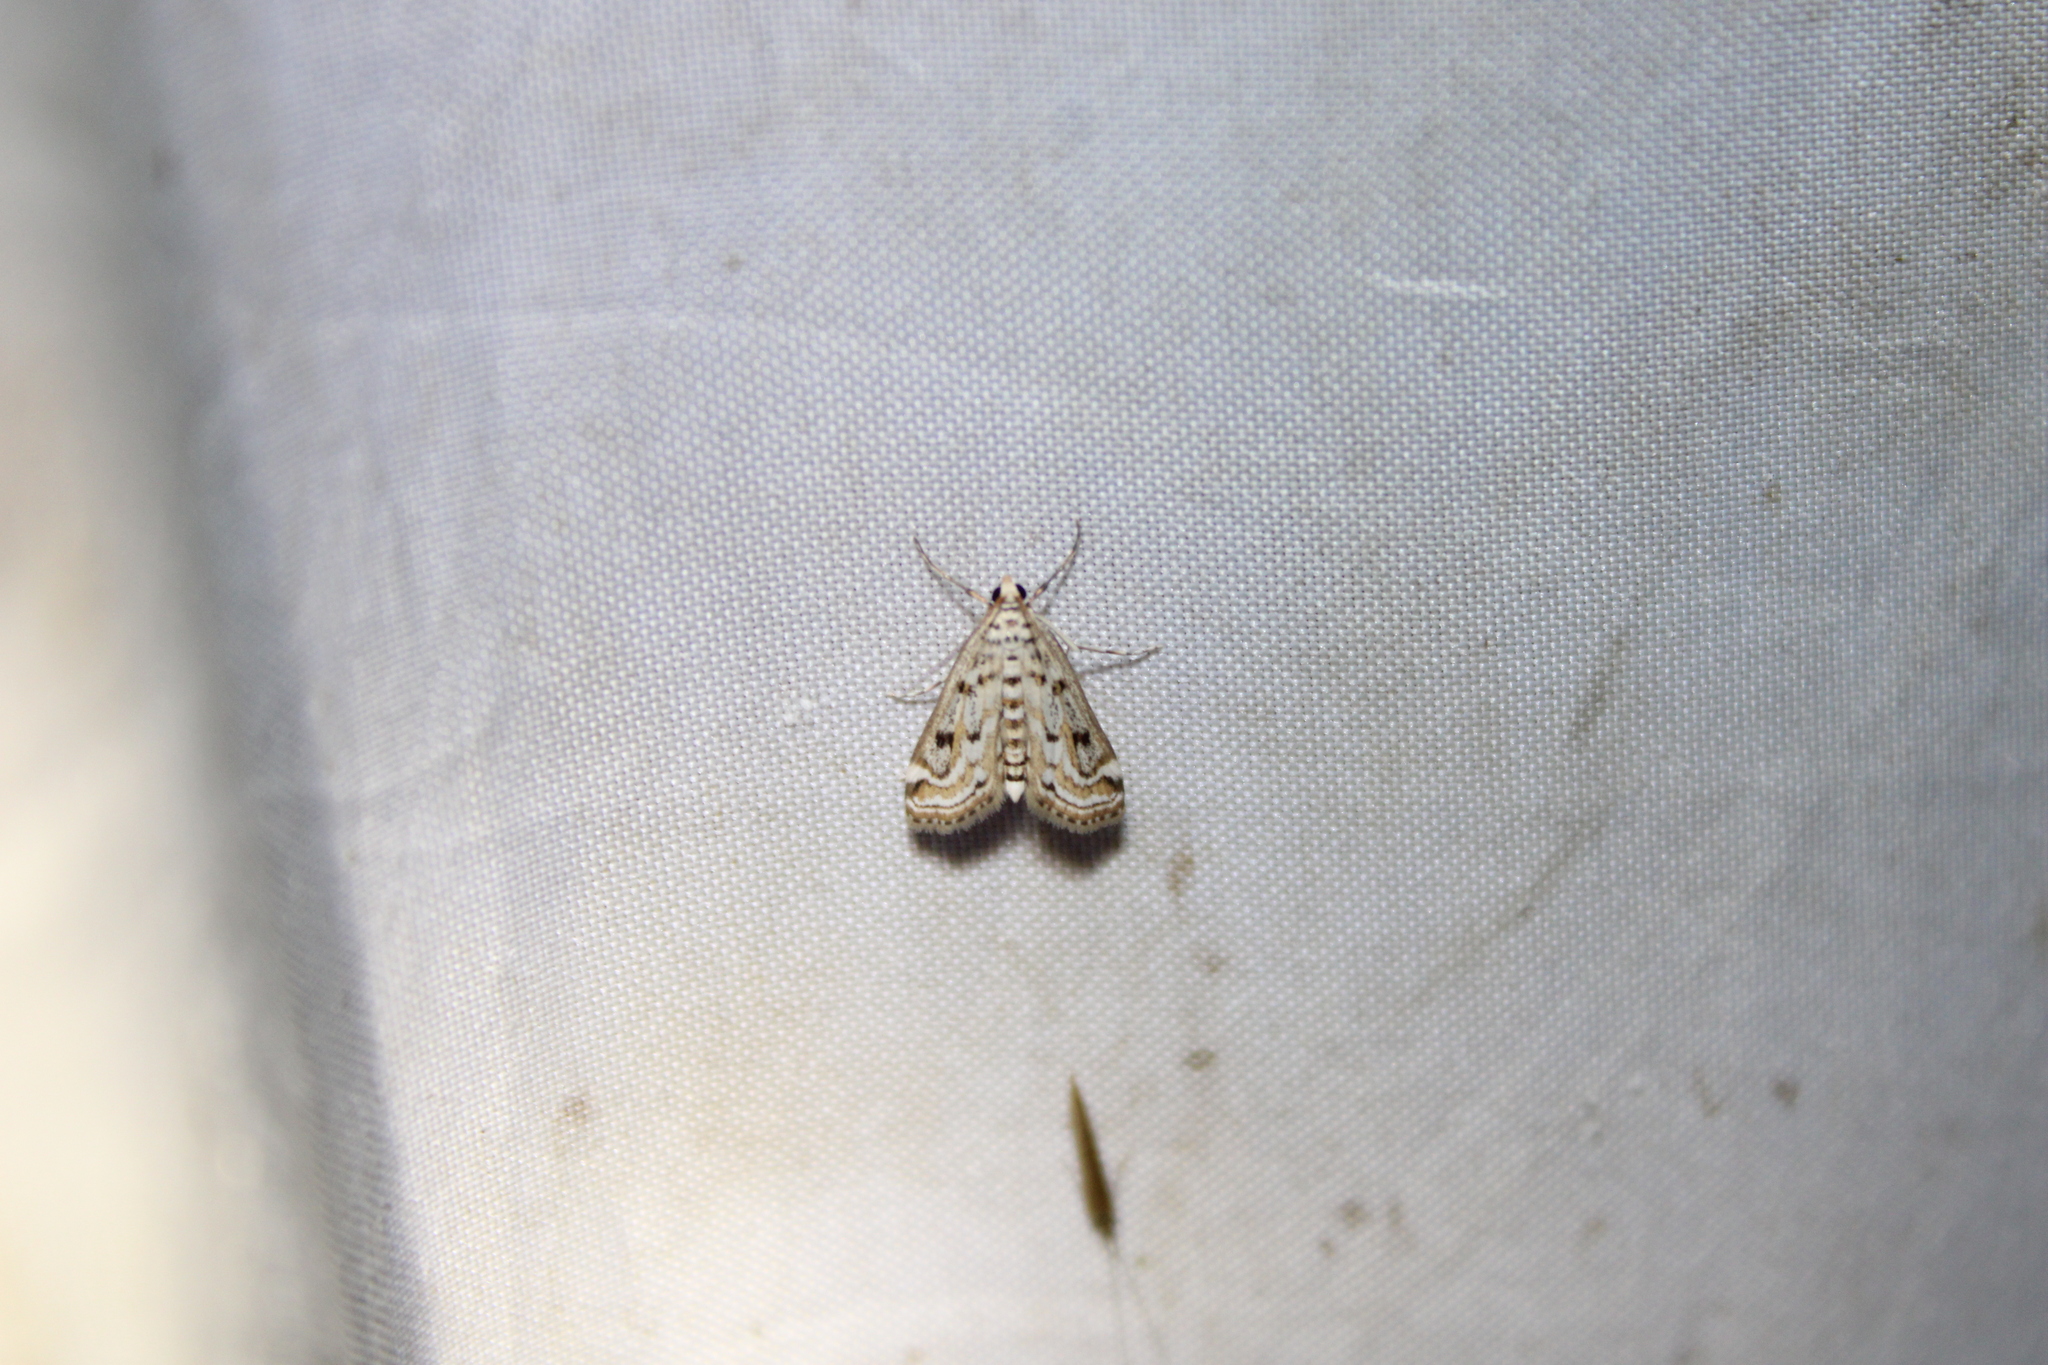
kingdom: Animalia
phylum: Arthropoda
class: Insecta
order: Lepidoptera
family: Crambidae
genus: Parapoynx
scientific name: Parapoynx allionealis
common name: Bladderwort casemaker
